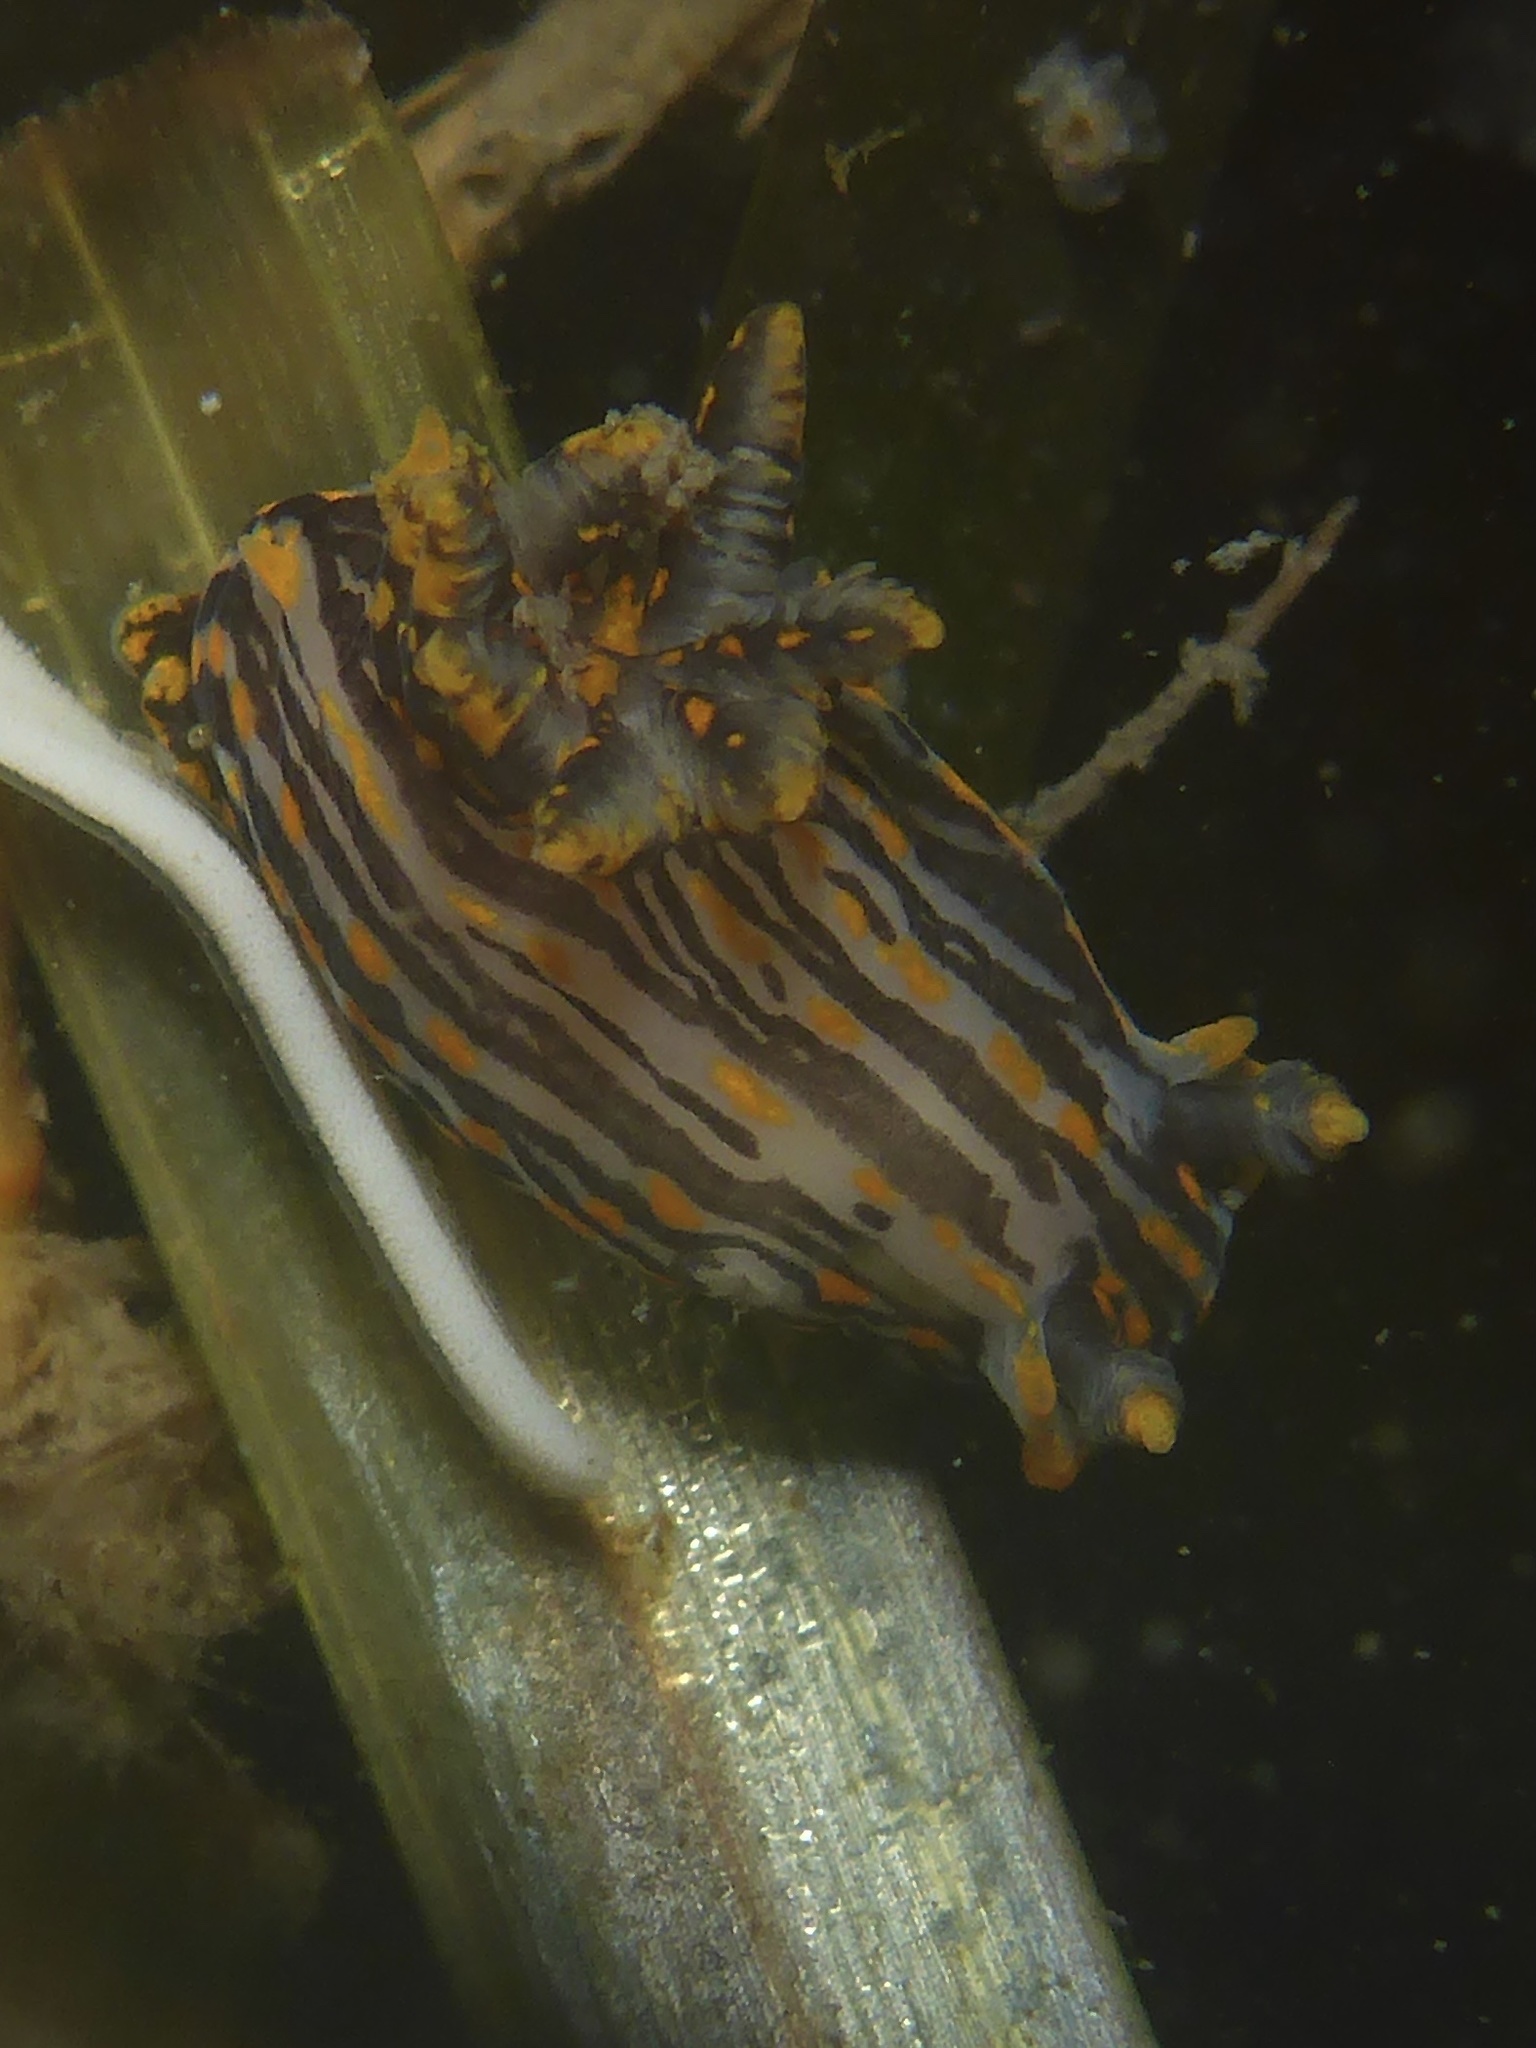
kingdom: Animalia
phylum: Mollusca
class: Gastropoda
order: Nudibranchia
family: Polyceridae
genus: Polycera
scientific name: Polycera atra
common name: Orange-spike polycera
